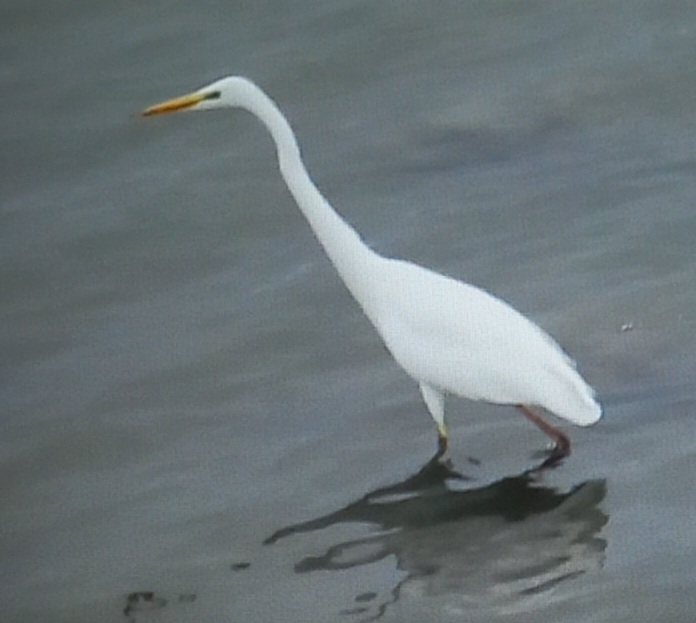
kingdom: Animalia
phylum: Chordata
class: Aves
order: Pelecaniformes
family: Ardeidae
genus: Ardea
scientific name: Ardea alba
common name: Great egret
